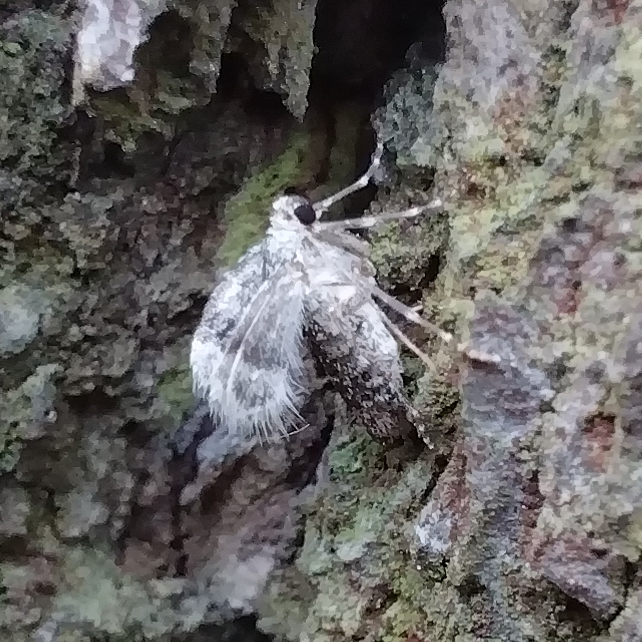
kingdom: Animalia
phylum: Arthropoda
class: Insecta
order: Lepidoptera
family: Geometridae
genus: Operophtera
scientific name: Operophtera fagata
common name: Northern winter moth
